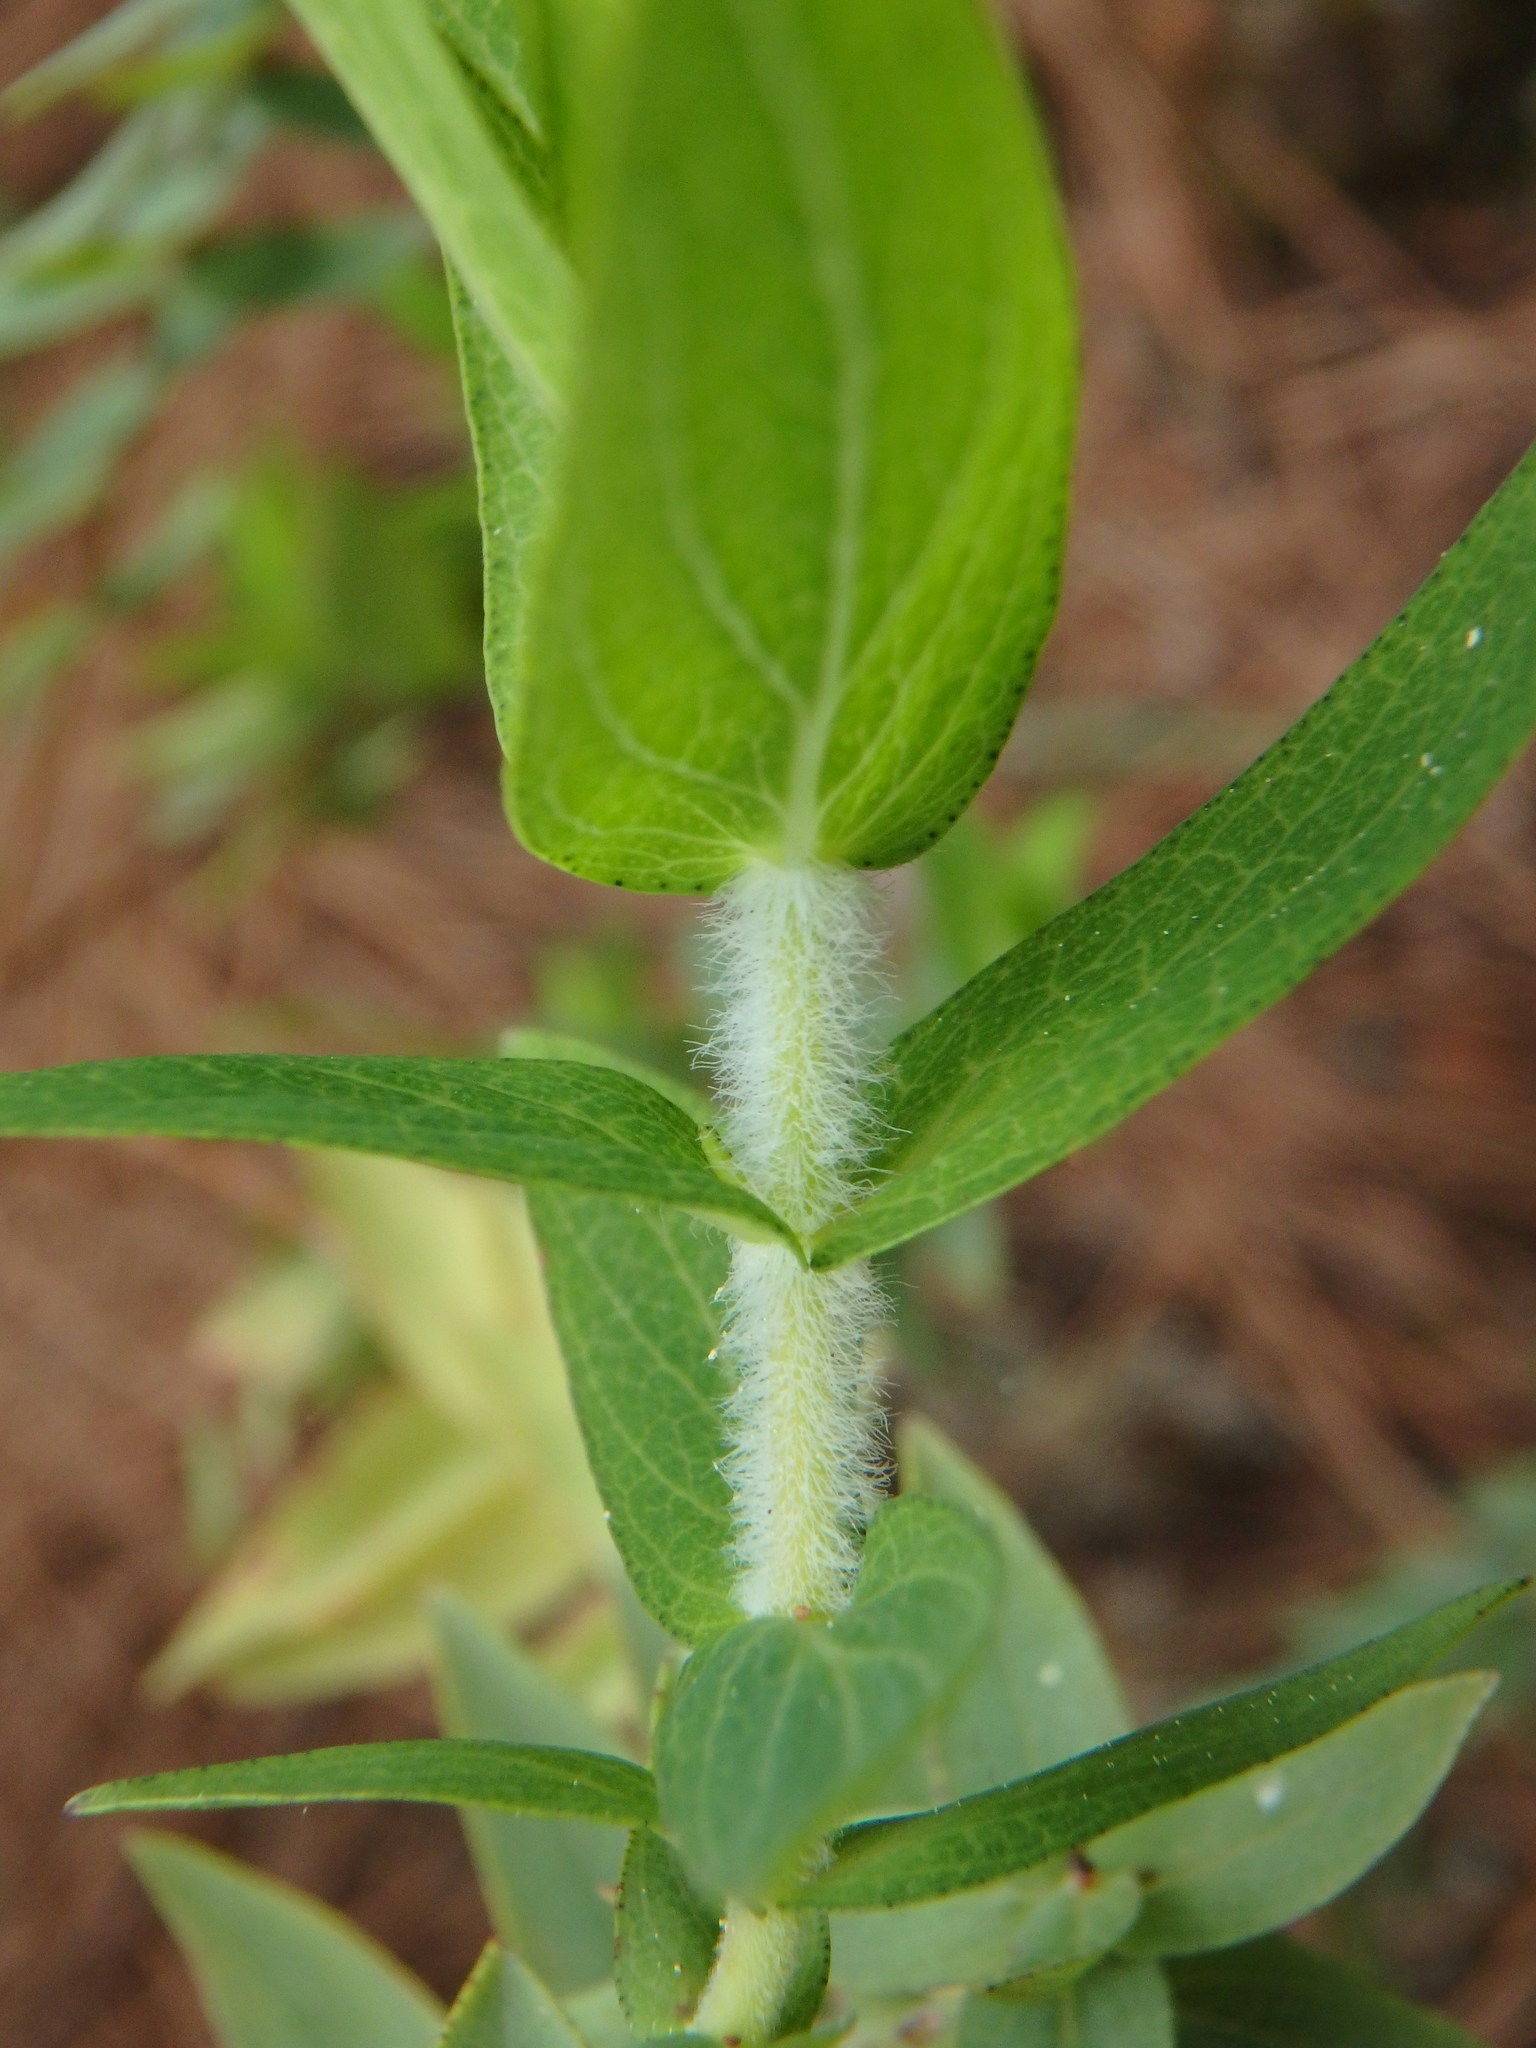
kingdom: Plantae
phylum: Tracheophyta
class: Magnoliopsida
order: Malpighiales
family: Hypericaceae
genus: Hypericum
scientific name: Hypericum reflexum
